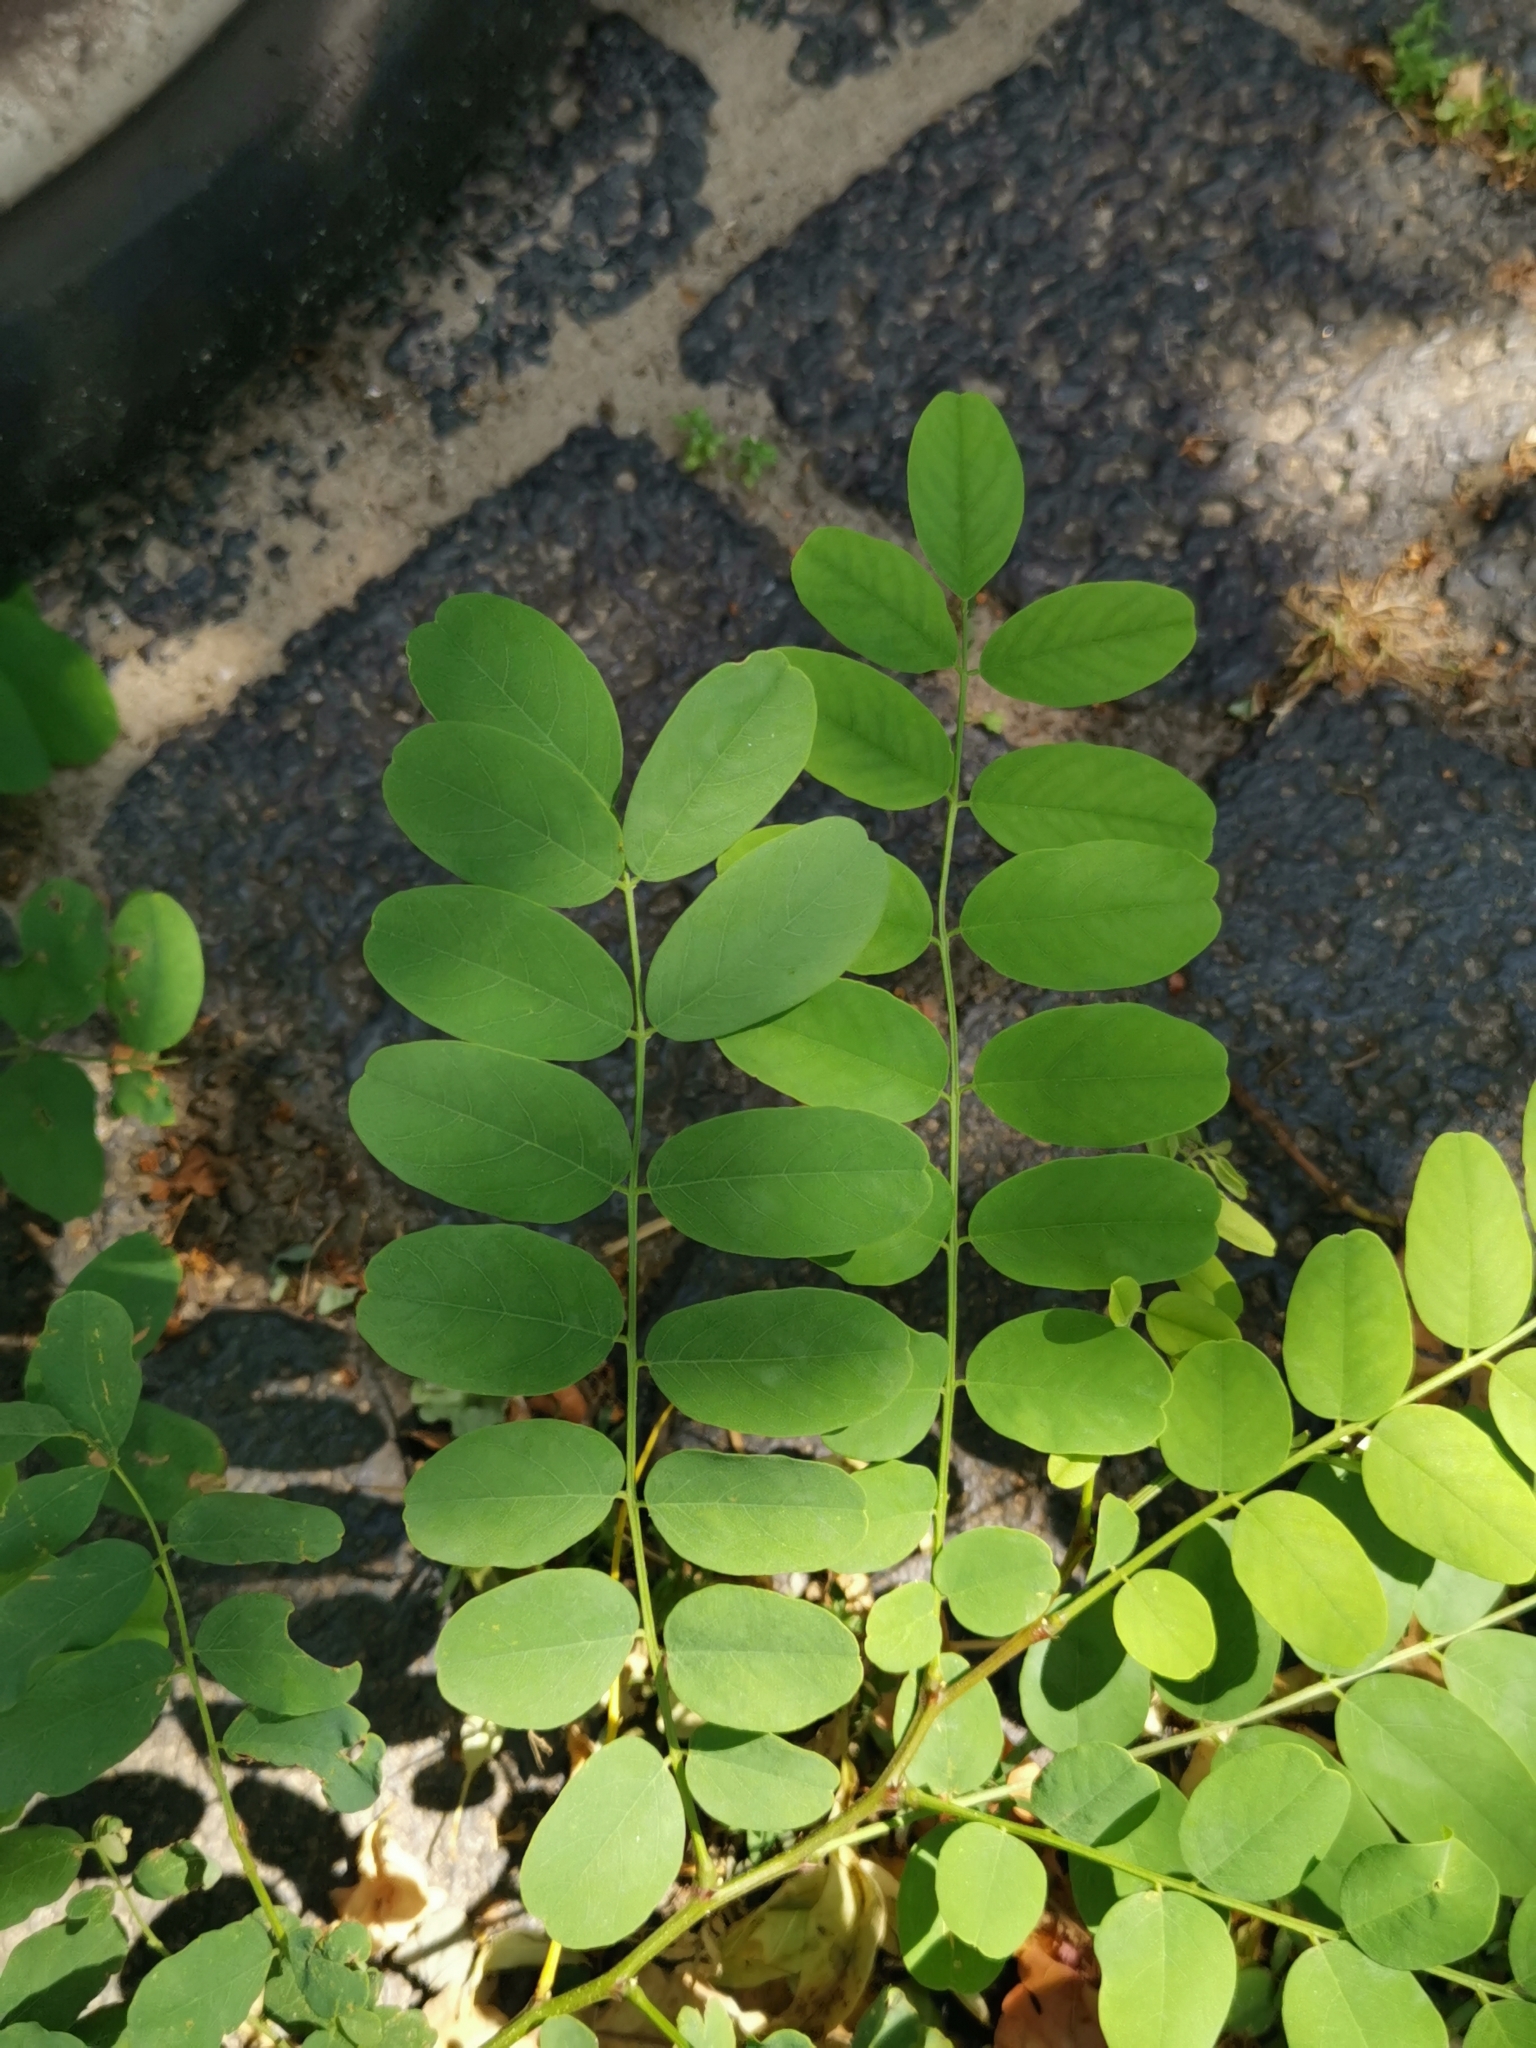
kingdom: Plantae
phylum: Tracheophyta
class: Magnoliopsida
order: Fabales
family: Fabaceae
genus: Robinia
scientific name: Robinia pseudoacacia
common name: Black locust
